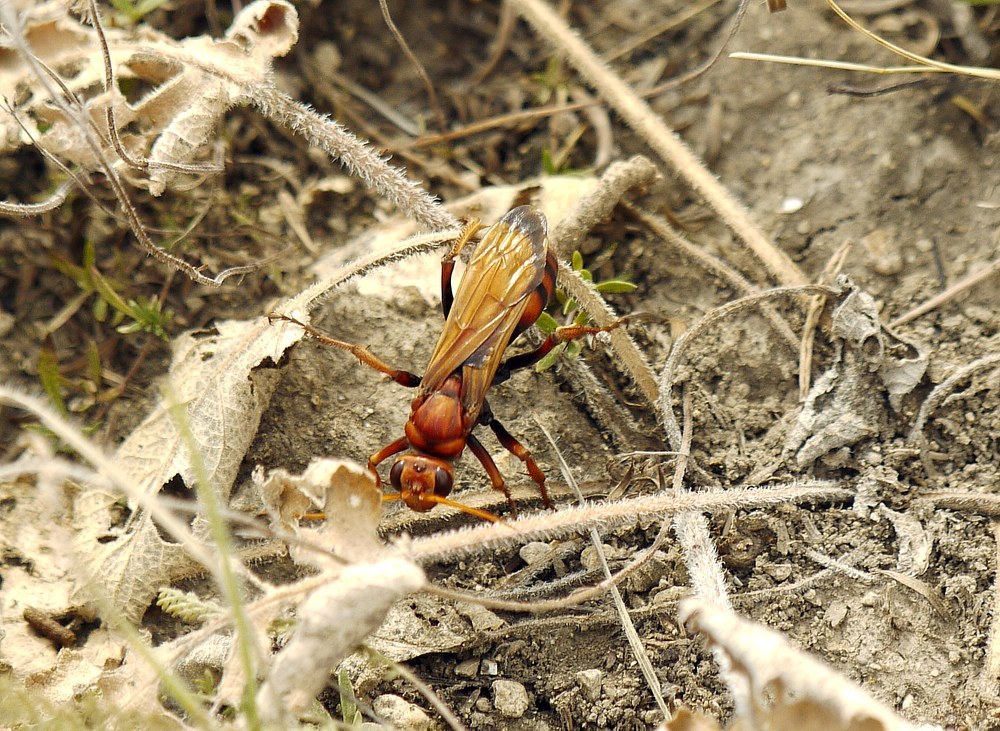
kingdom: Animalia
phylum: Arthropoda
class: Insecta
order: Hymenoptera
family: Pompilidae
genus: Cryptocheilus
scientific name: Cryptocheilus rubellus
